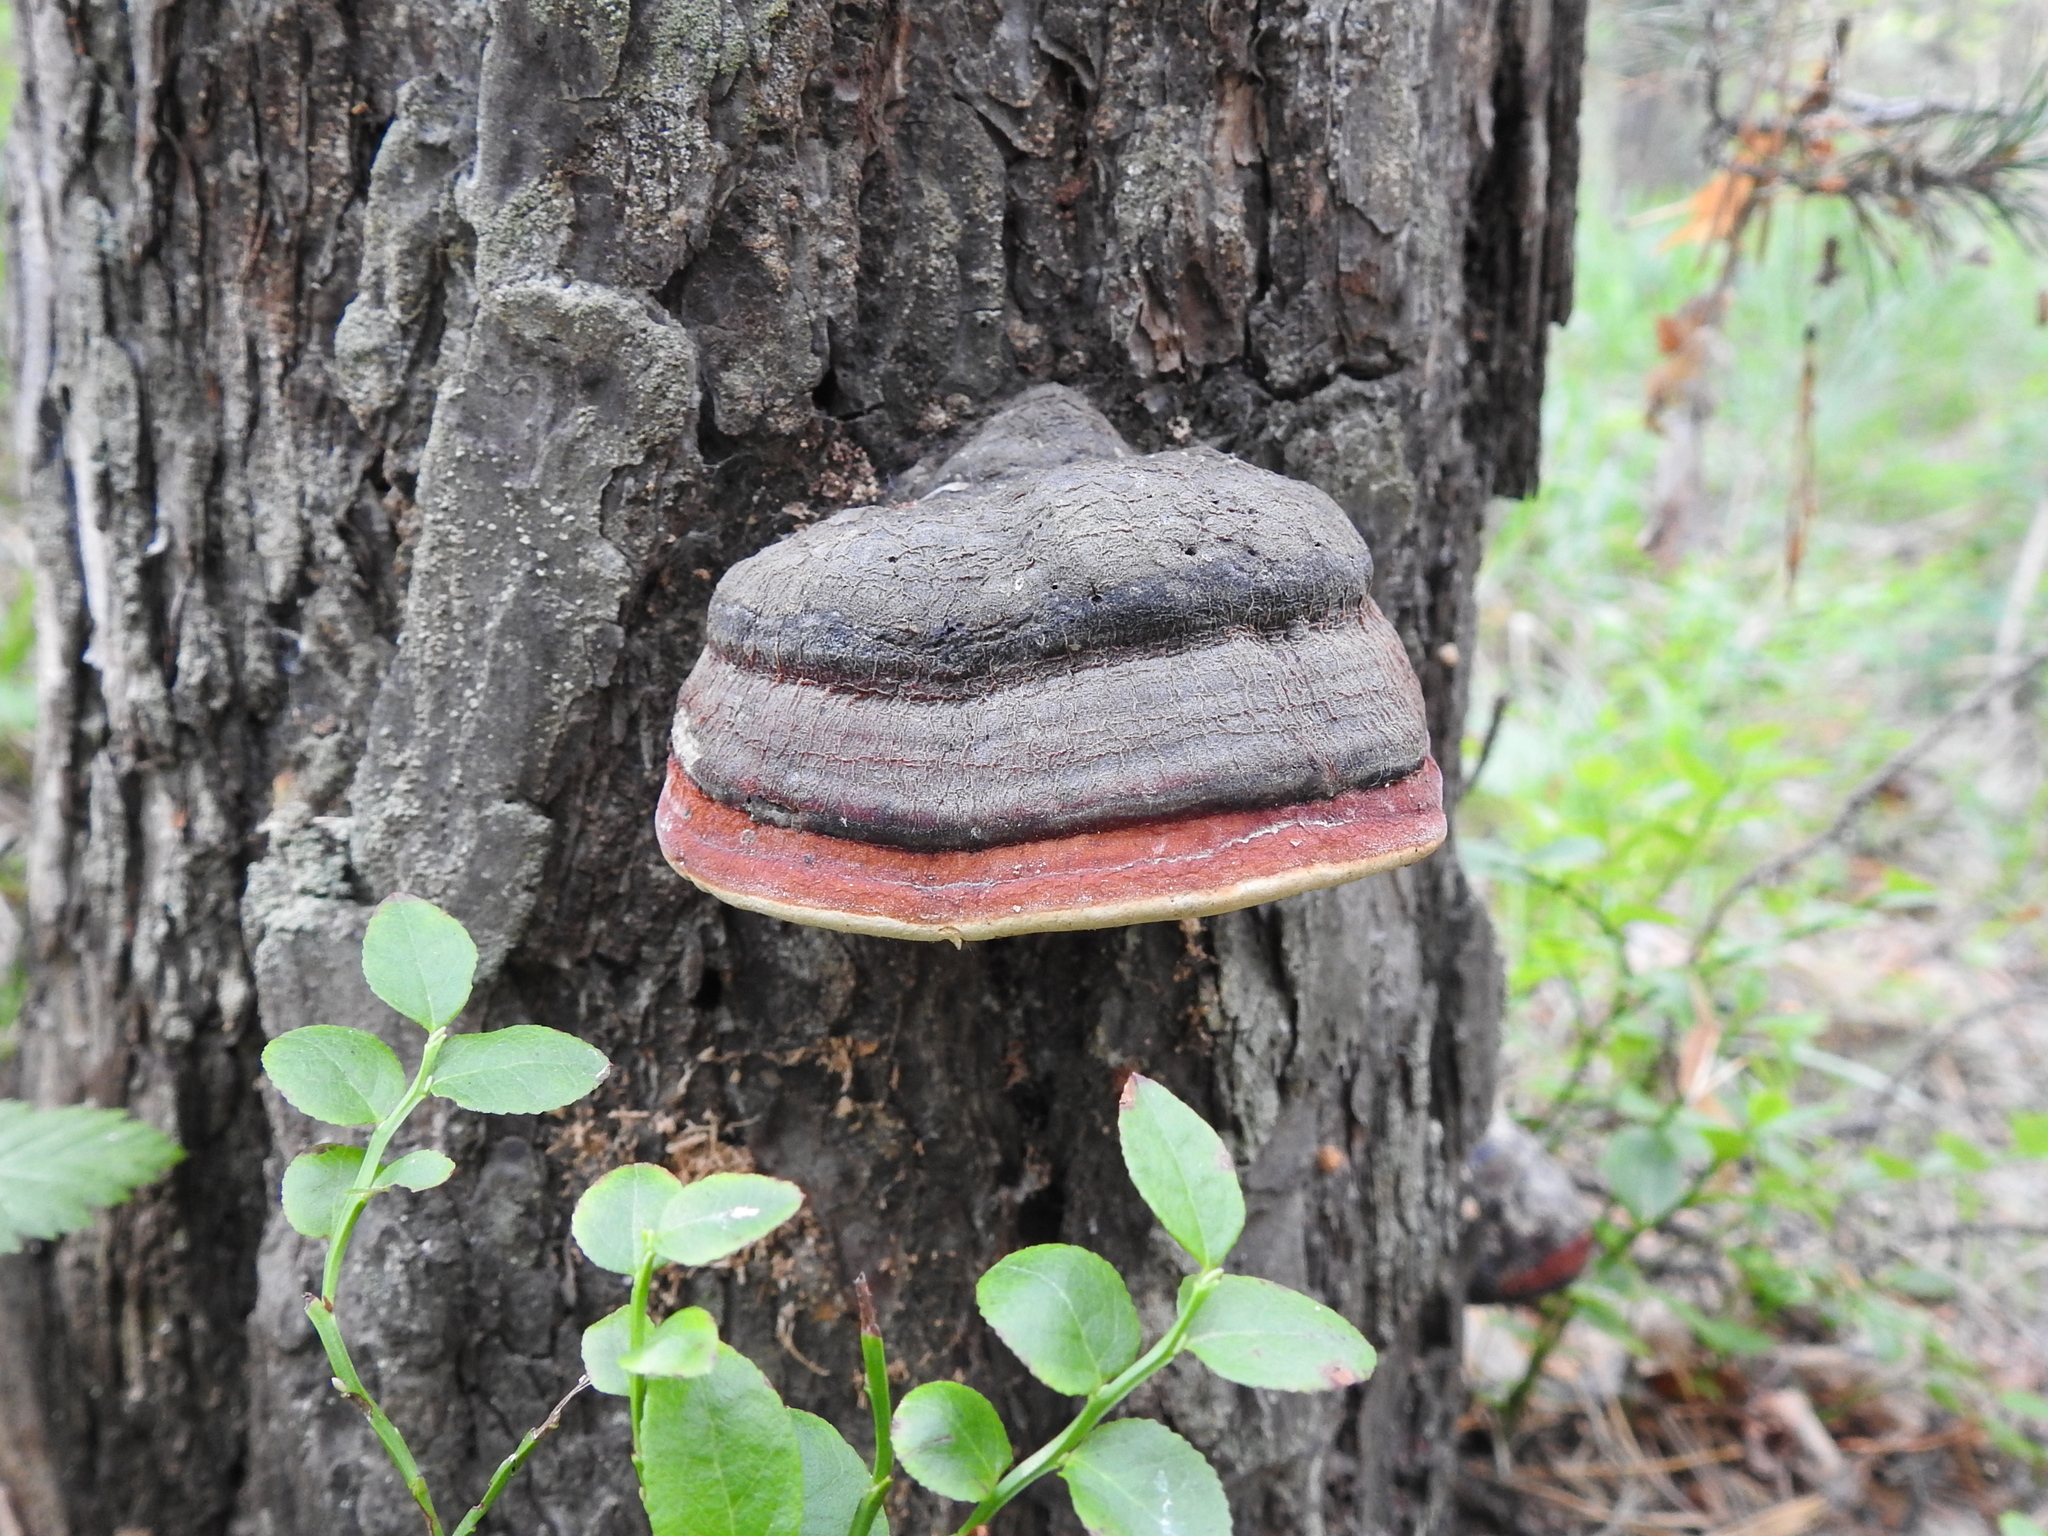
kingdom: Fungi
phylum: Basidiomycota
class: Agaricomycetes
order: Polyporales
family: Fomitopsidaceae
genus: Fomitopsis
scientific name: Fomitopsis pinicola
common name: Red-belted bracket
